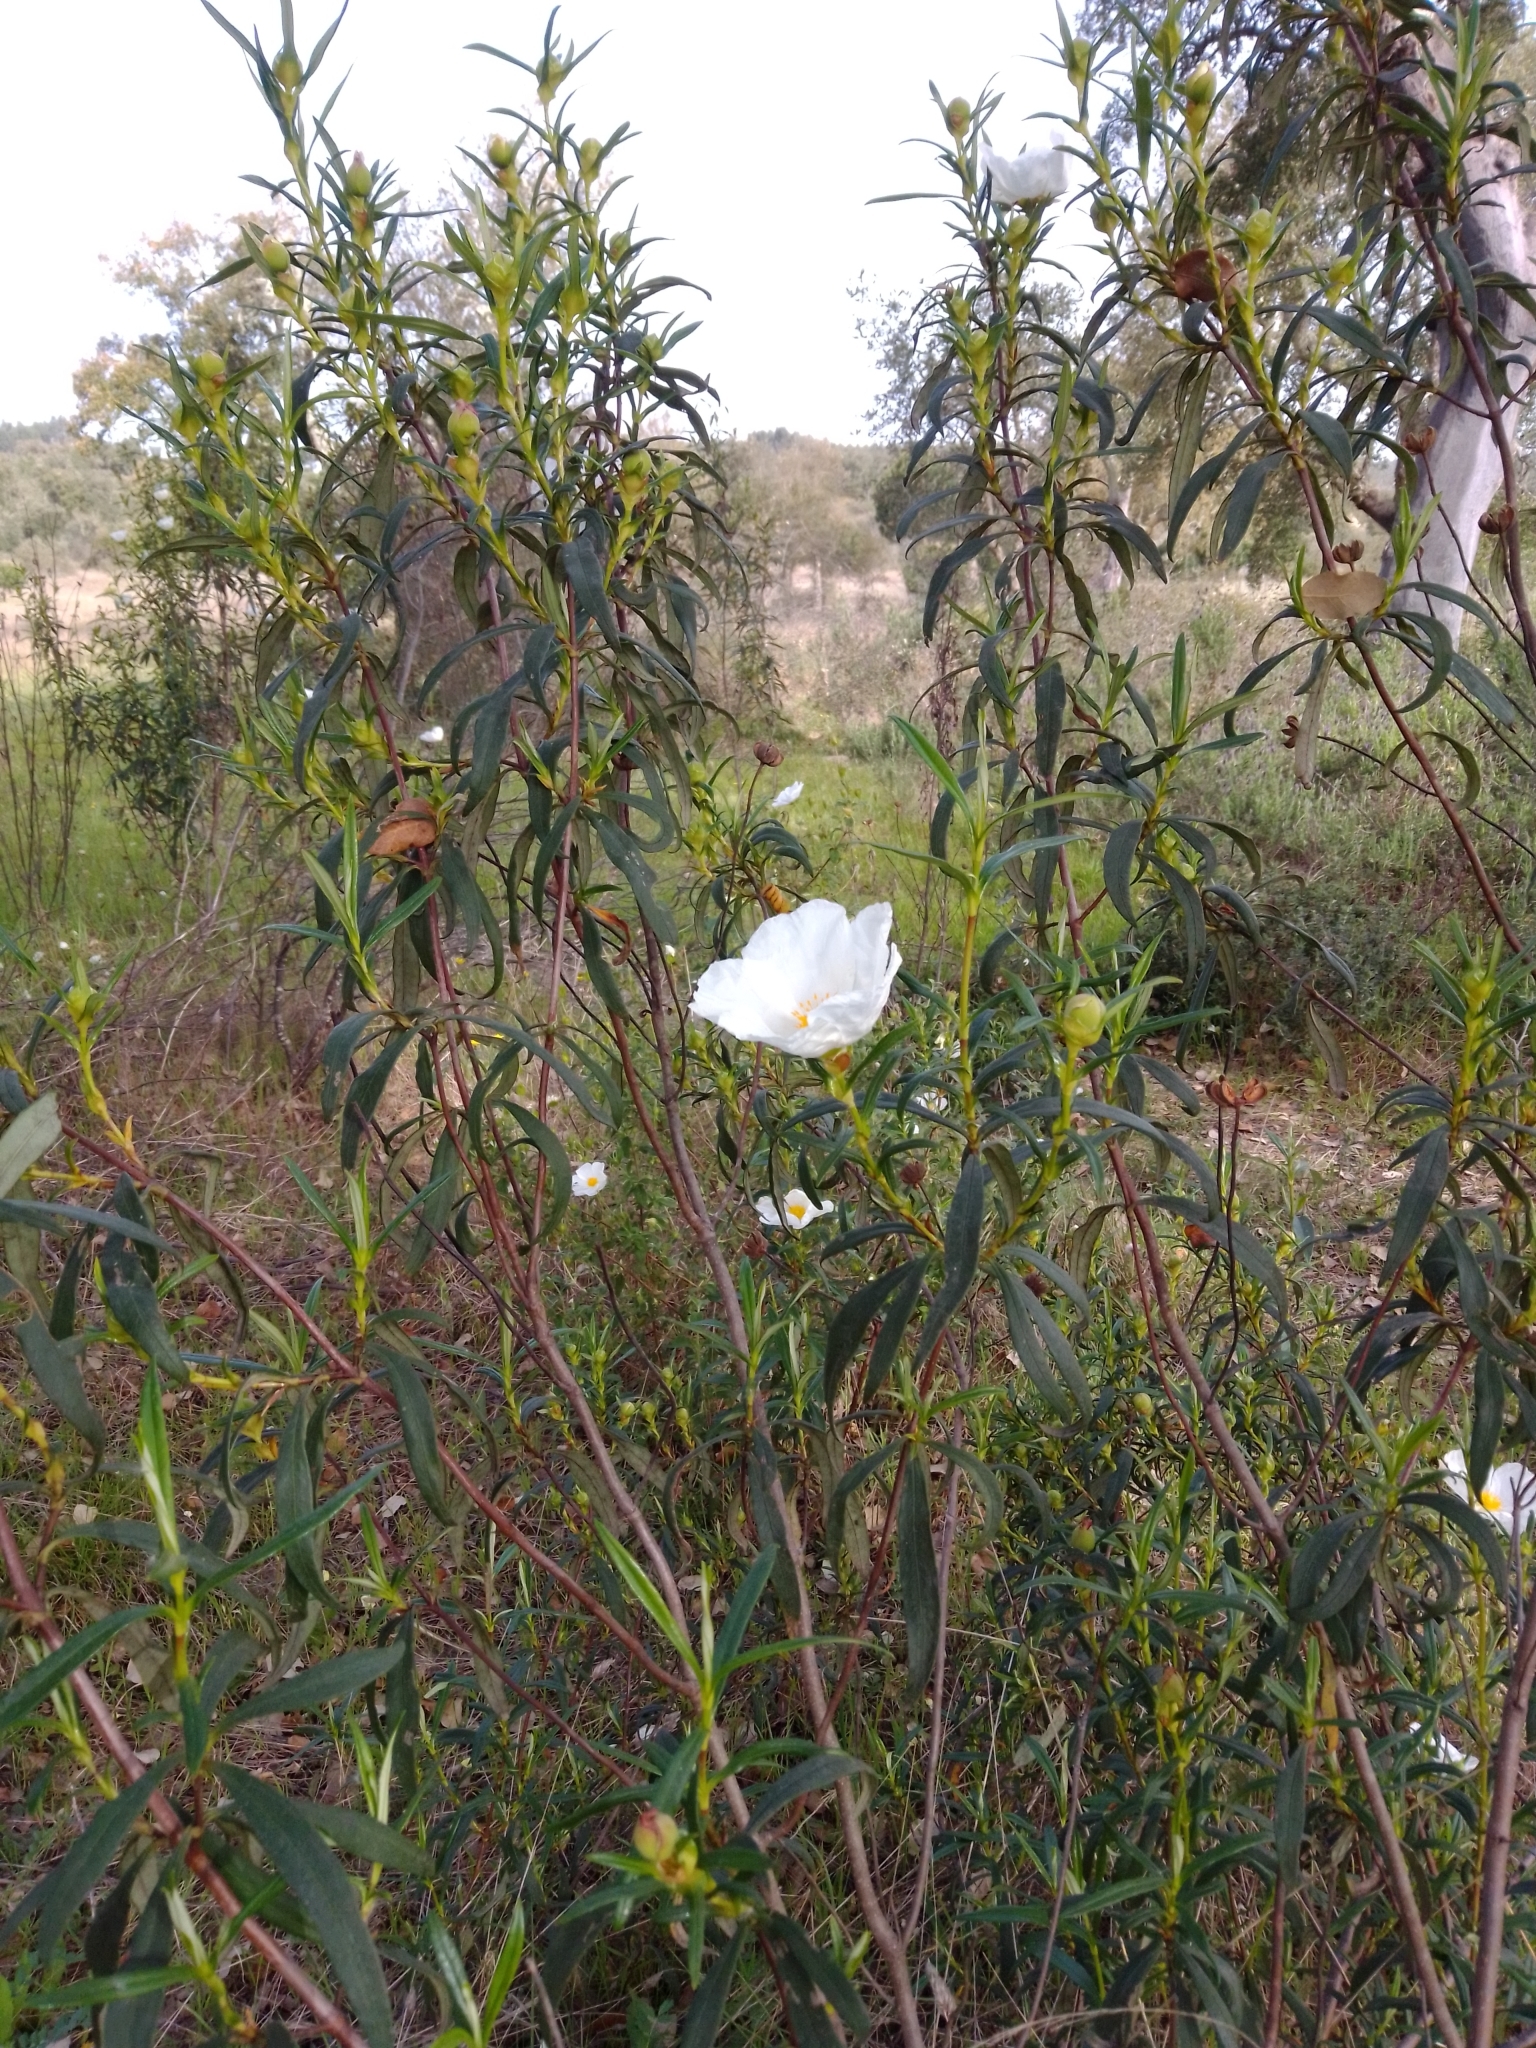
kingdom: Plantae
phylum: Tracheophyta
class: Magnoliopsida
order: Malvales
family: Cistaceae
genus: Cistus
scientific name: Cistus ladanifer
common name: Common gum cistus
